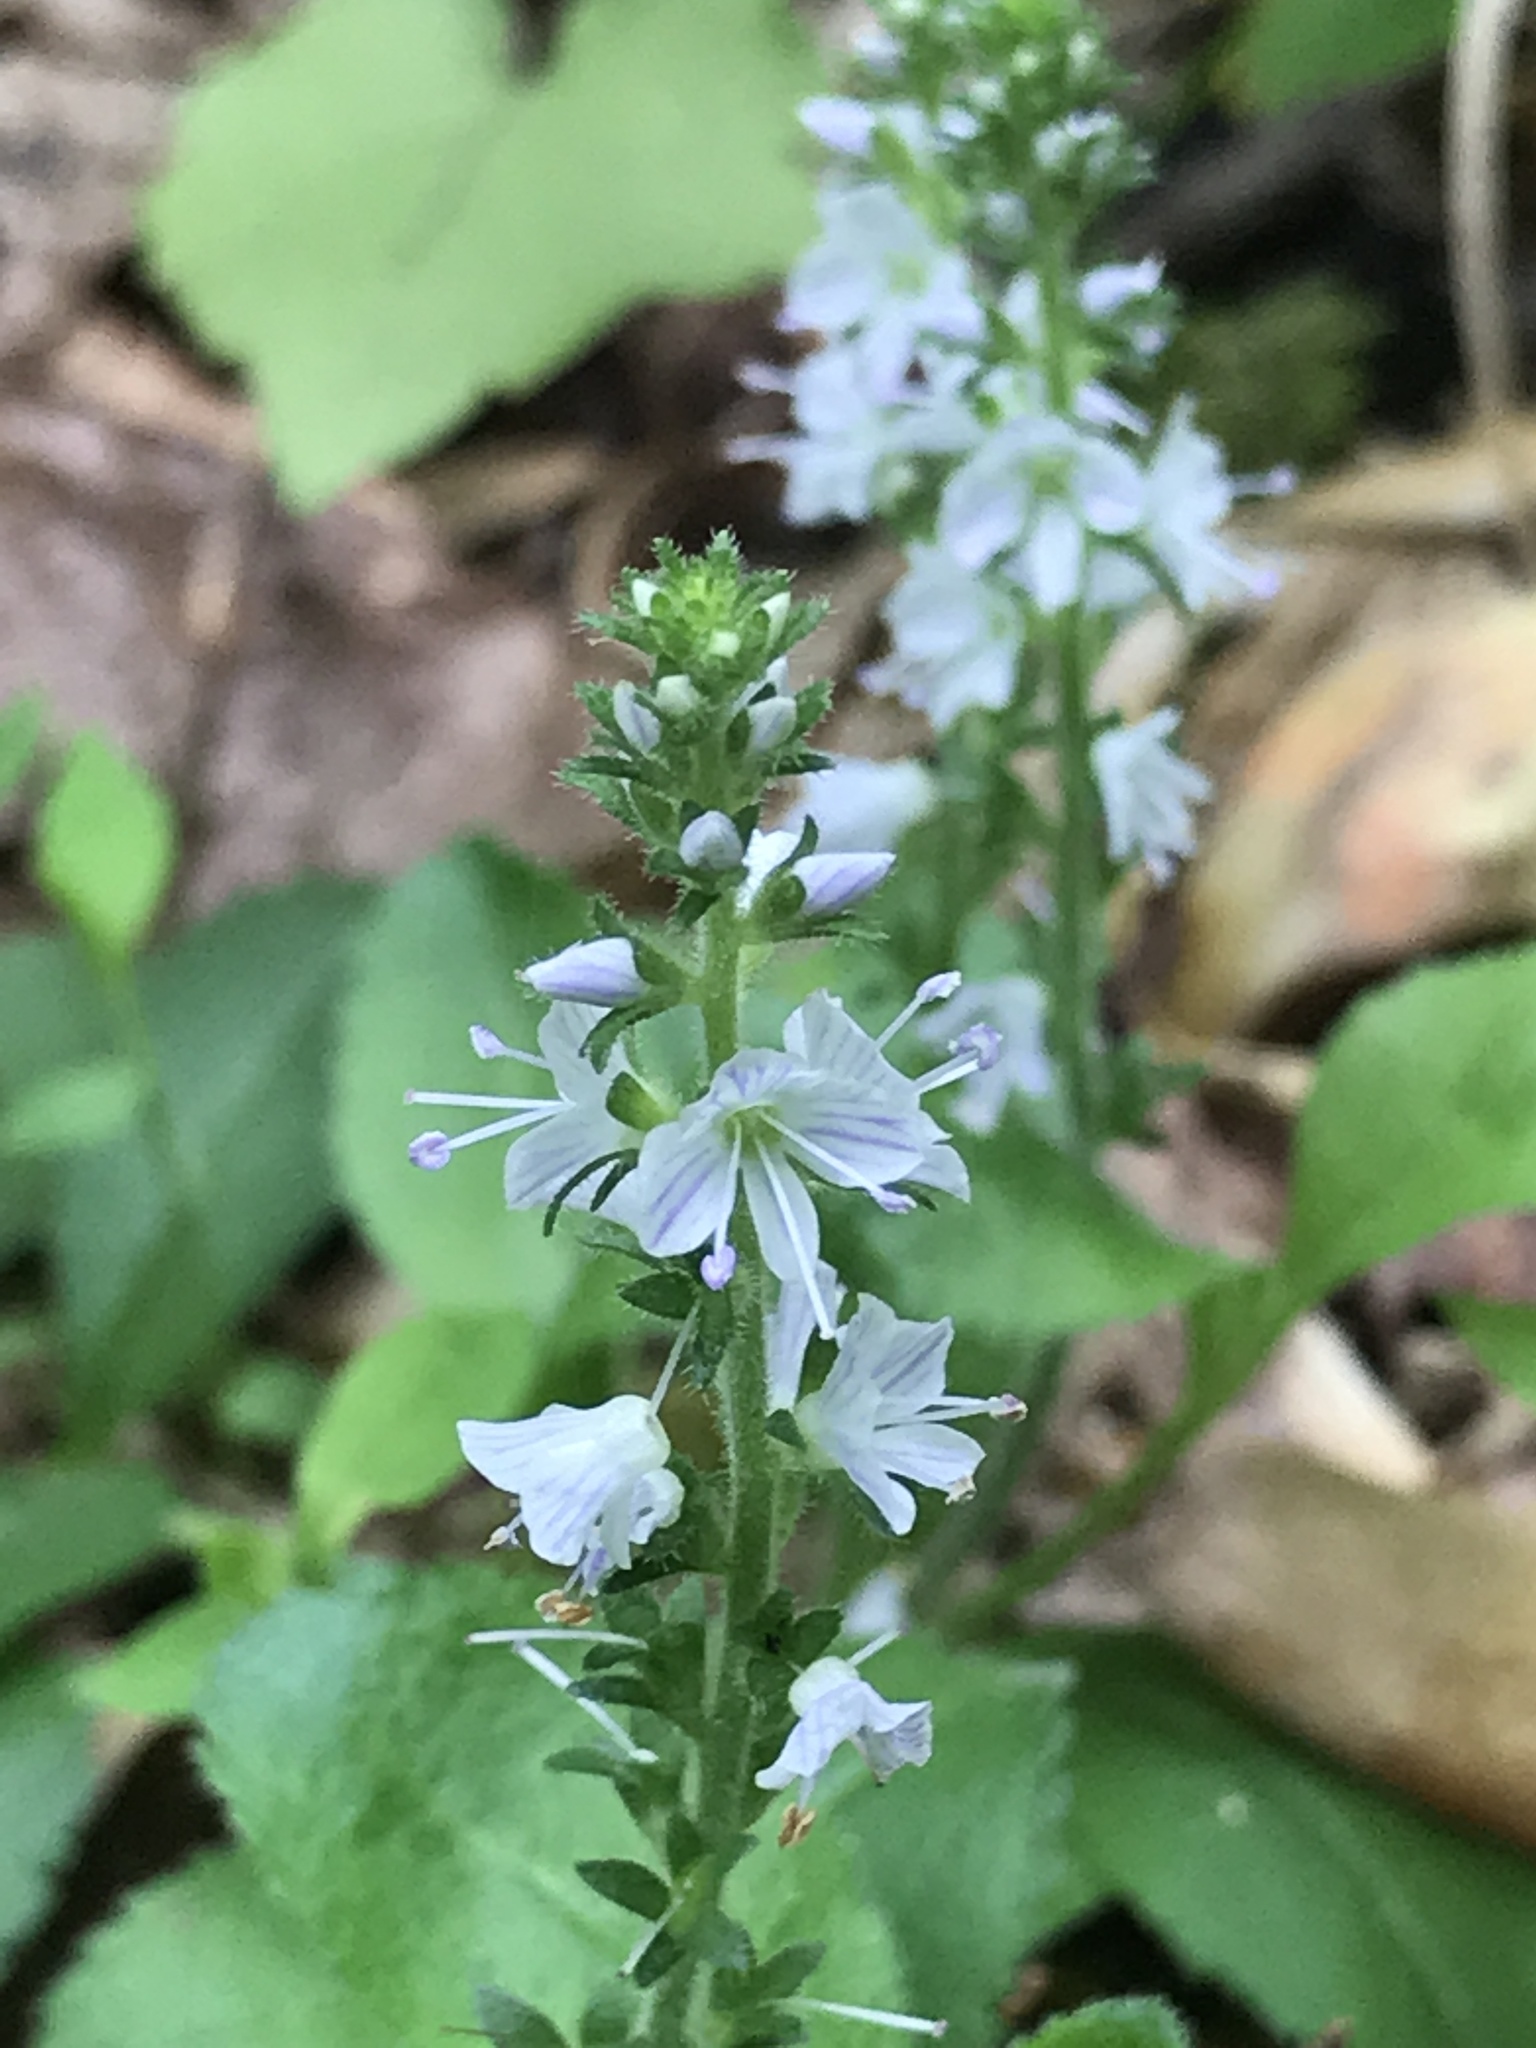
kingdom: Plantae
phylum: Tracheophyta
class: Magnoliopsida
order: Lamiales
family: Plantaginaceae
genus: Veronica
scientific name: Veronica officinalis
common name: Common speedwell
